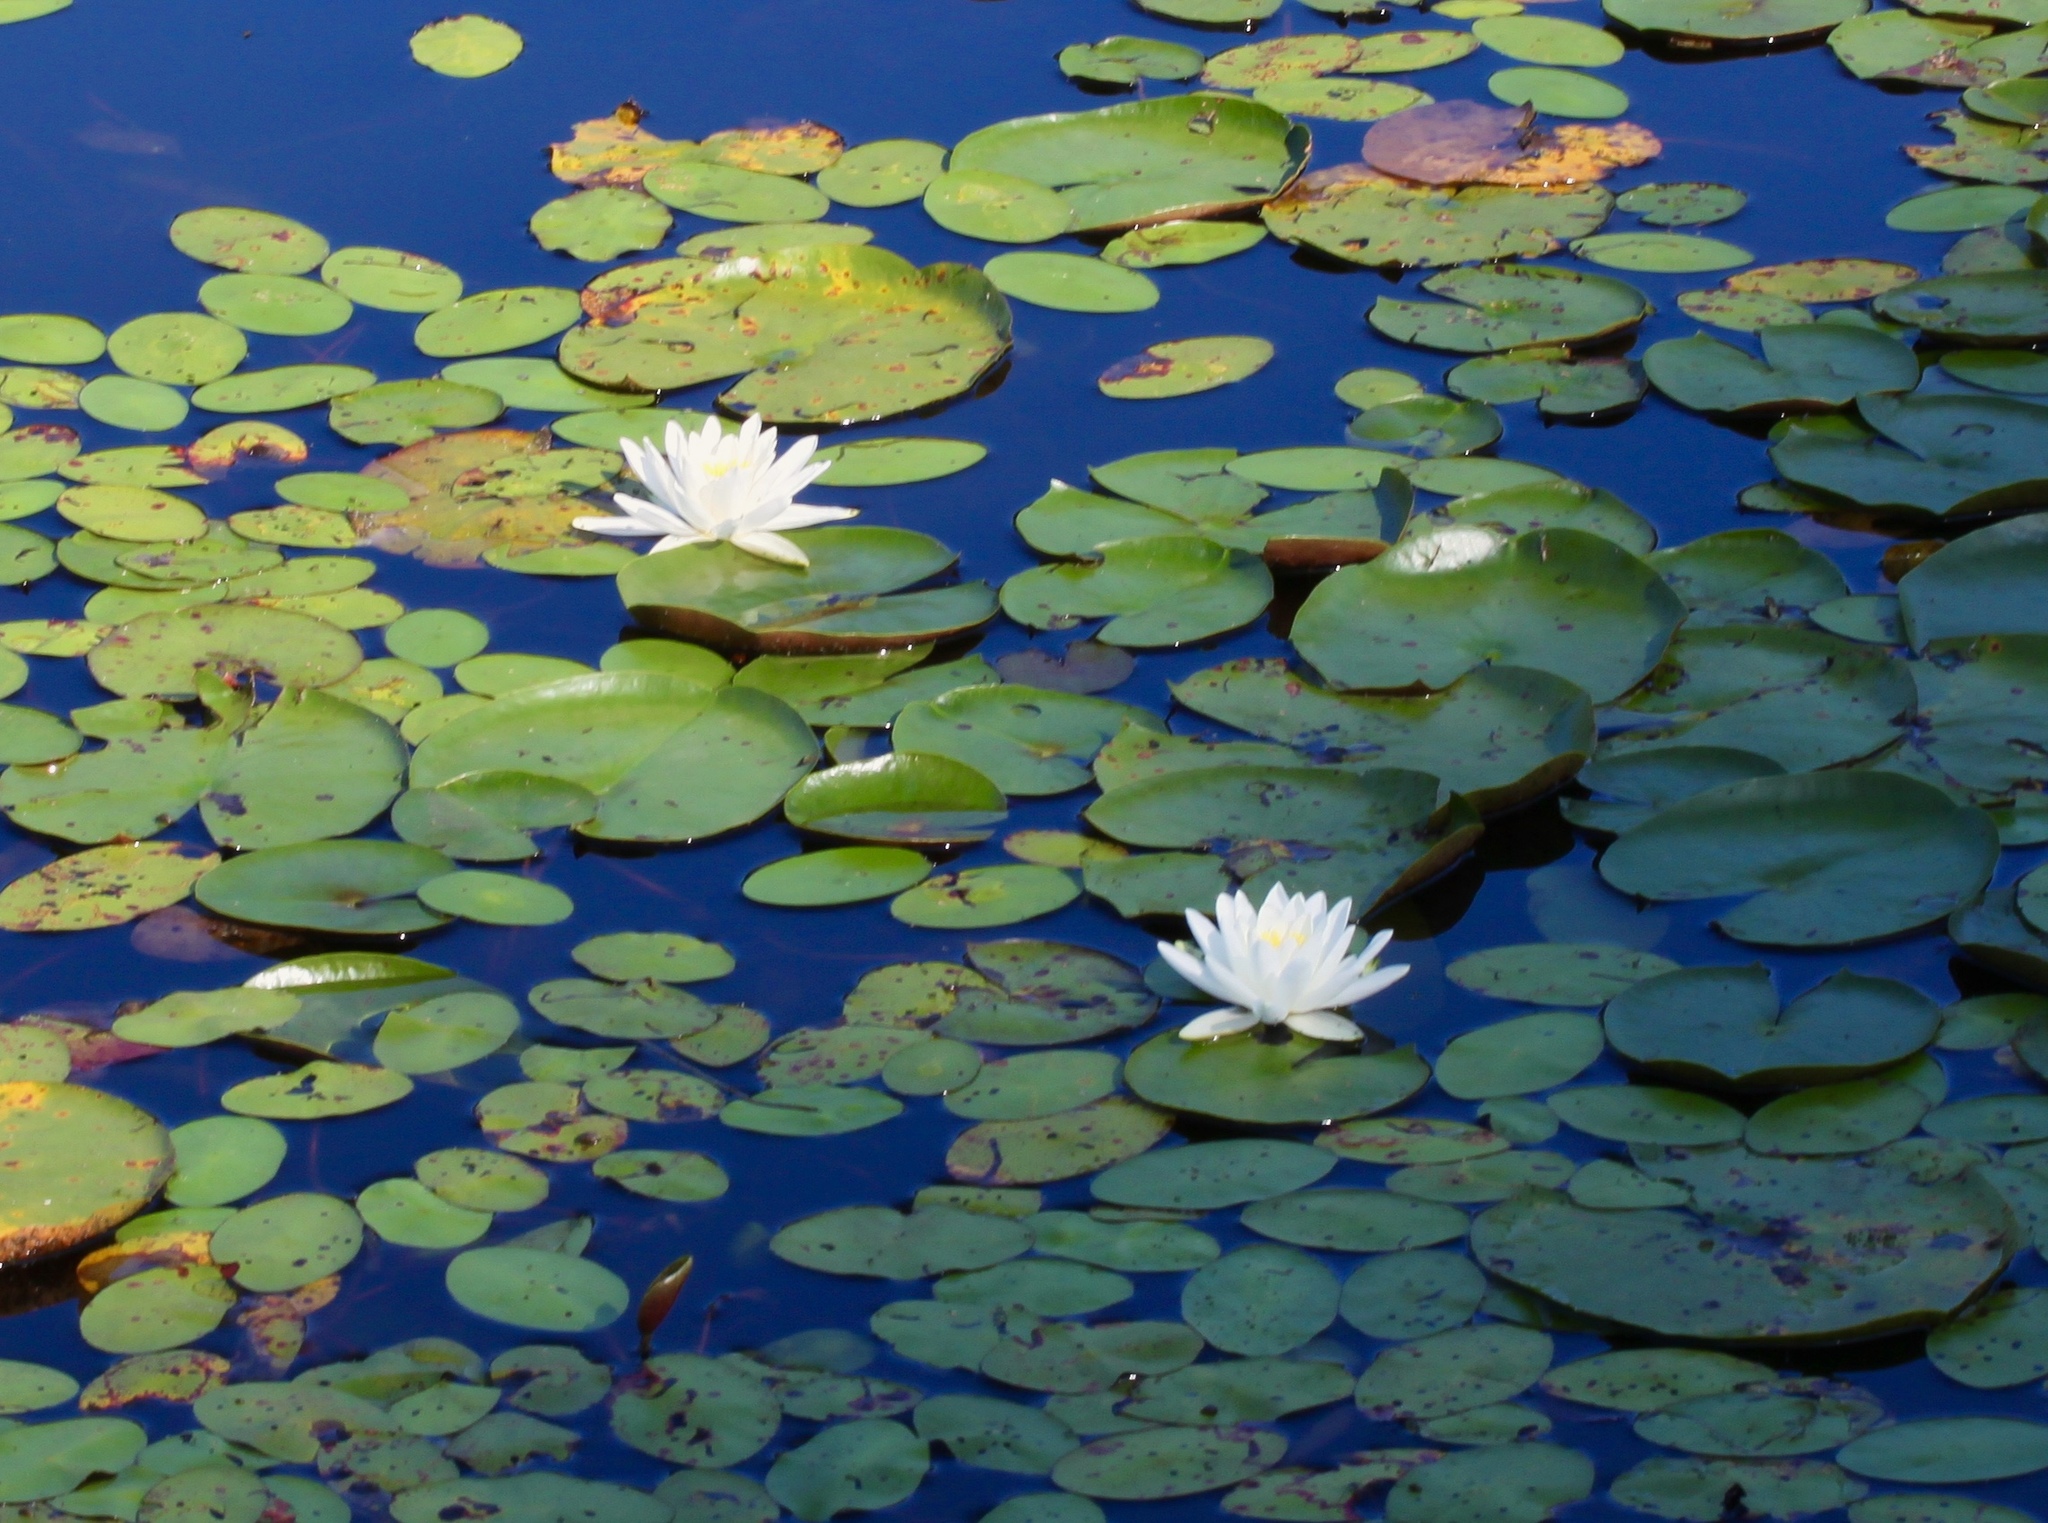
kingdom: Plantae
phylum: Tracheophyta
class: Magnoliopsida
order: Nymphaeales
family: Nymphaeaceae
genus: Nymphaea
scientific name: Nymphaea odorata
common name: Fragrant water-lily
